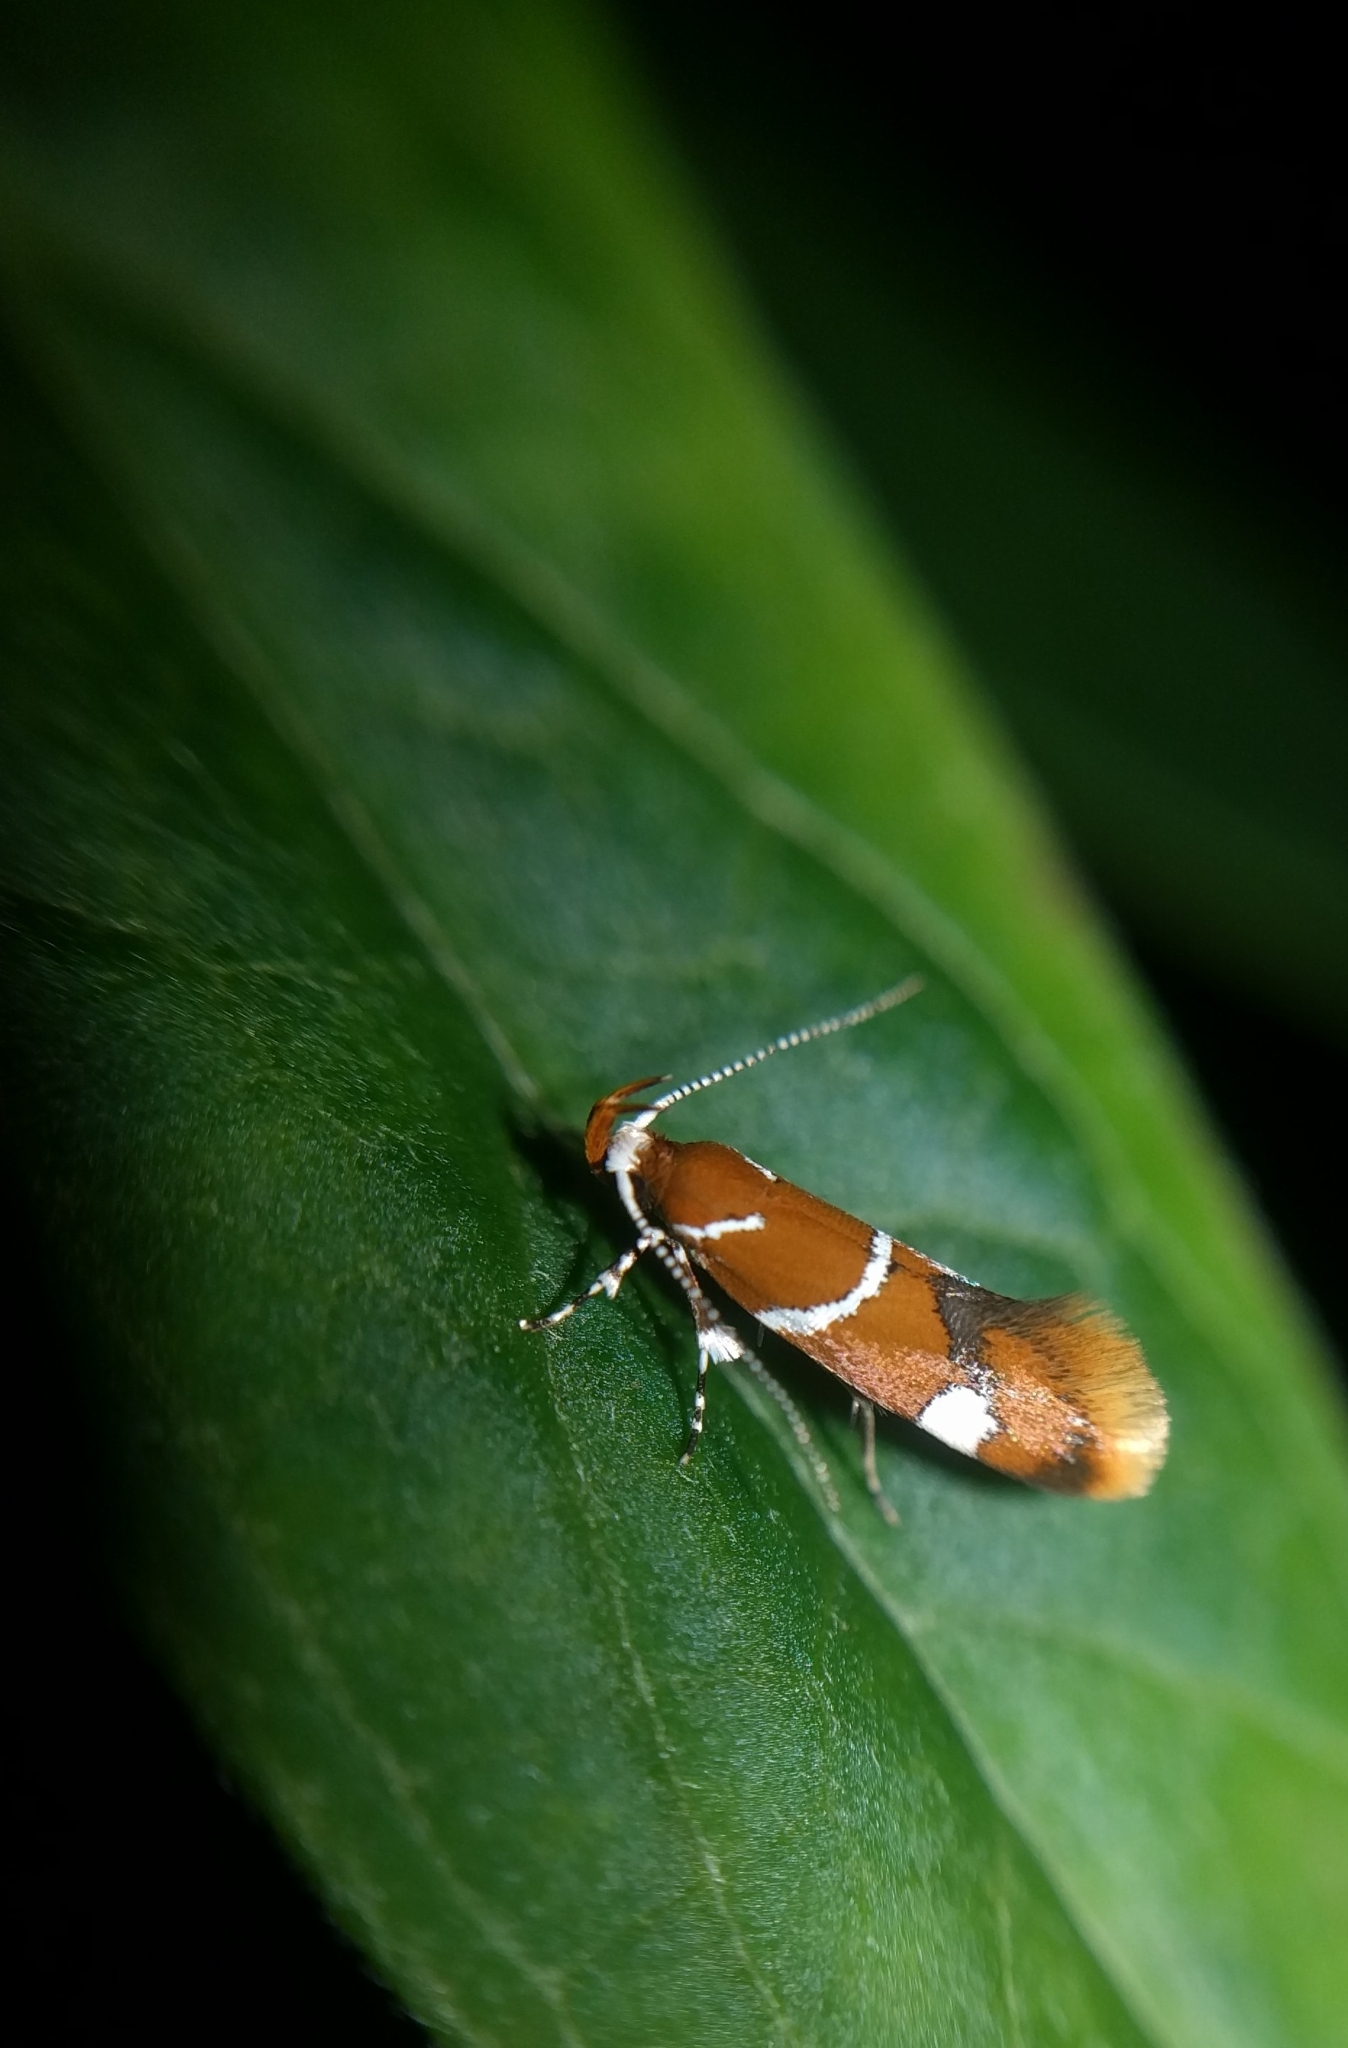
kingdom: Animalia
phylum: Arthropoda
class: Insecta
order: Lepidoptera
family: Oecophoridae
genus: Promalactis
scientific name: Promalactis suzukiella
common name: Moth
